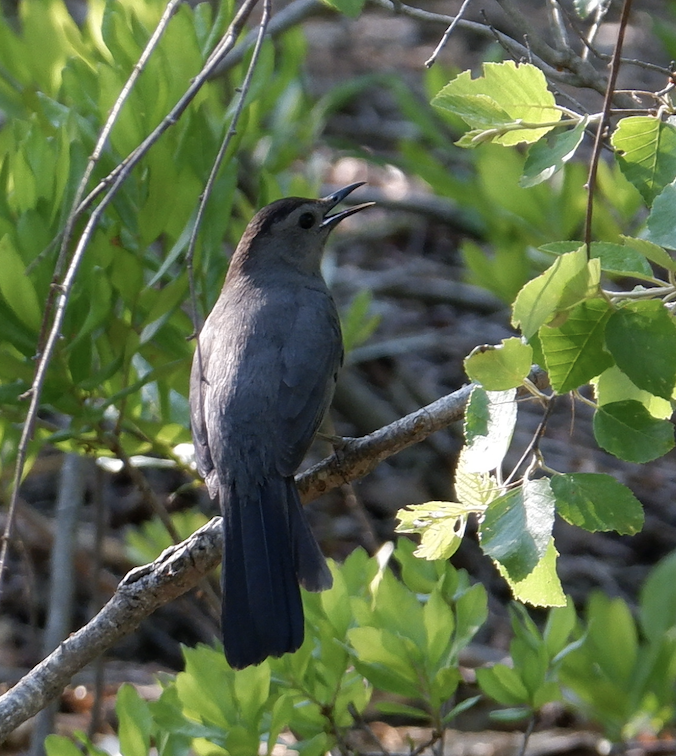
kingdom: Animalia
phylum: Chordata
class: Aves
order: Passeriformes
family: Mimidae
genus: Dumetella
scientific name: Dumetella carolinensis
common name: Gray catbird
